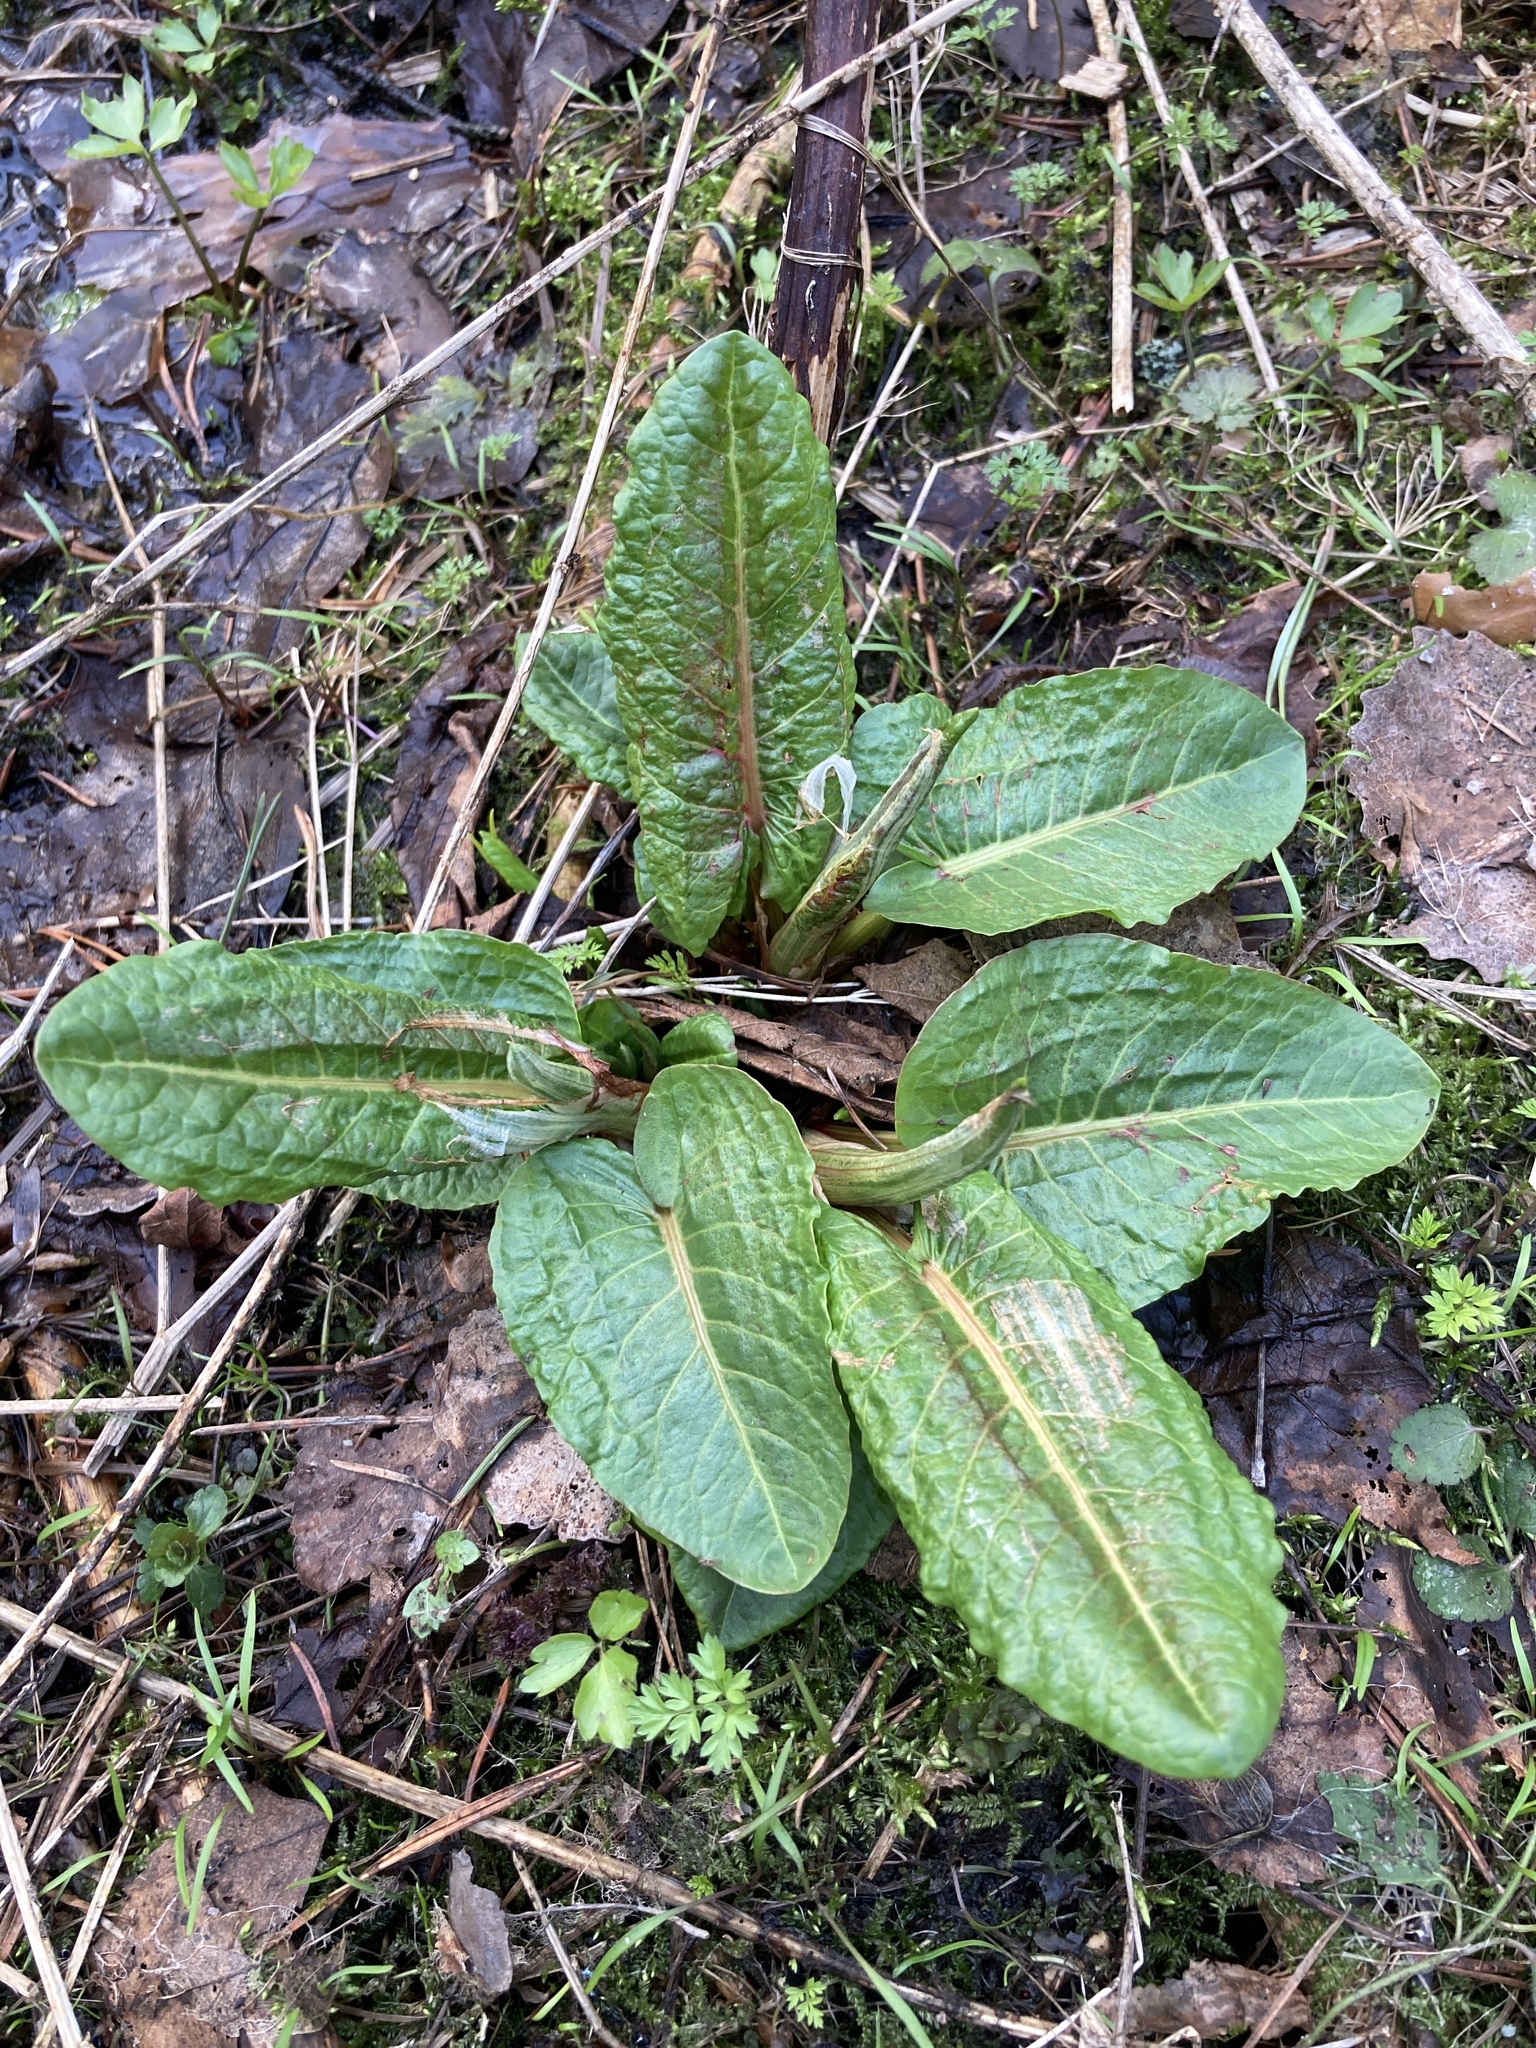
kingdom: Plantae
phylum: Tracheophyta
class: Magnoliopsida
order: Caryophyllales
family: Polygonaceae
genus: Rumex
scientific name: Rumex obtusifolius
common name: Bitter dock
